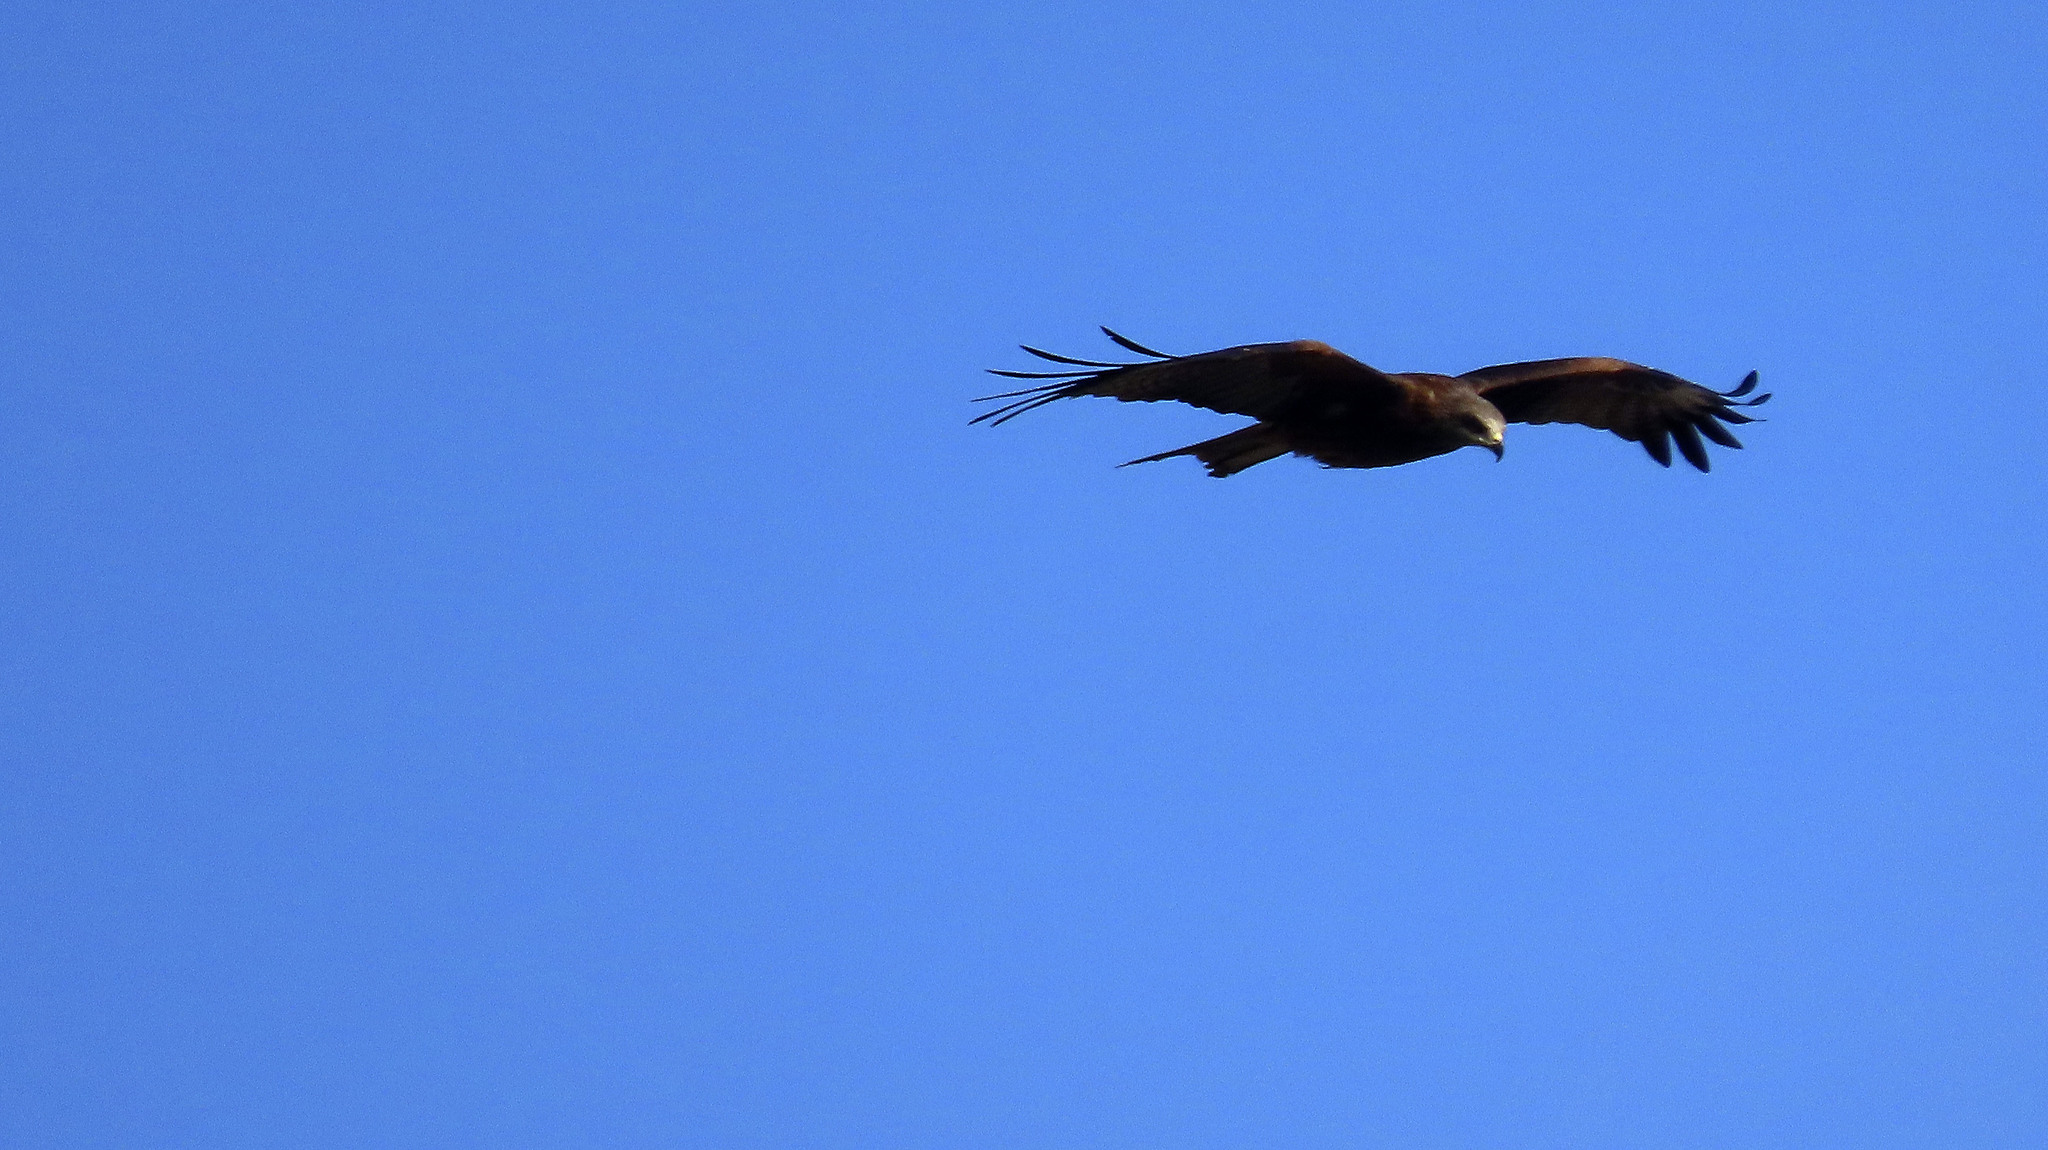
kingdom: Animalia
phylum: Chordata
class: Aves
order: Accipitriformes
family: Accipitridae
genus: Milvus
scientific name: Milvus migrans
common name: Black kite
